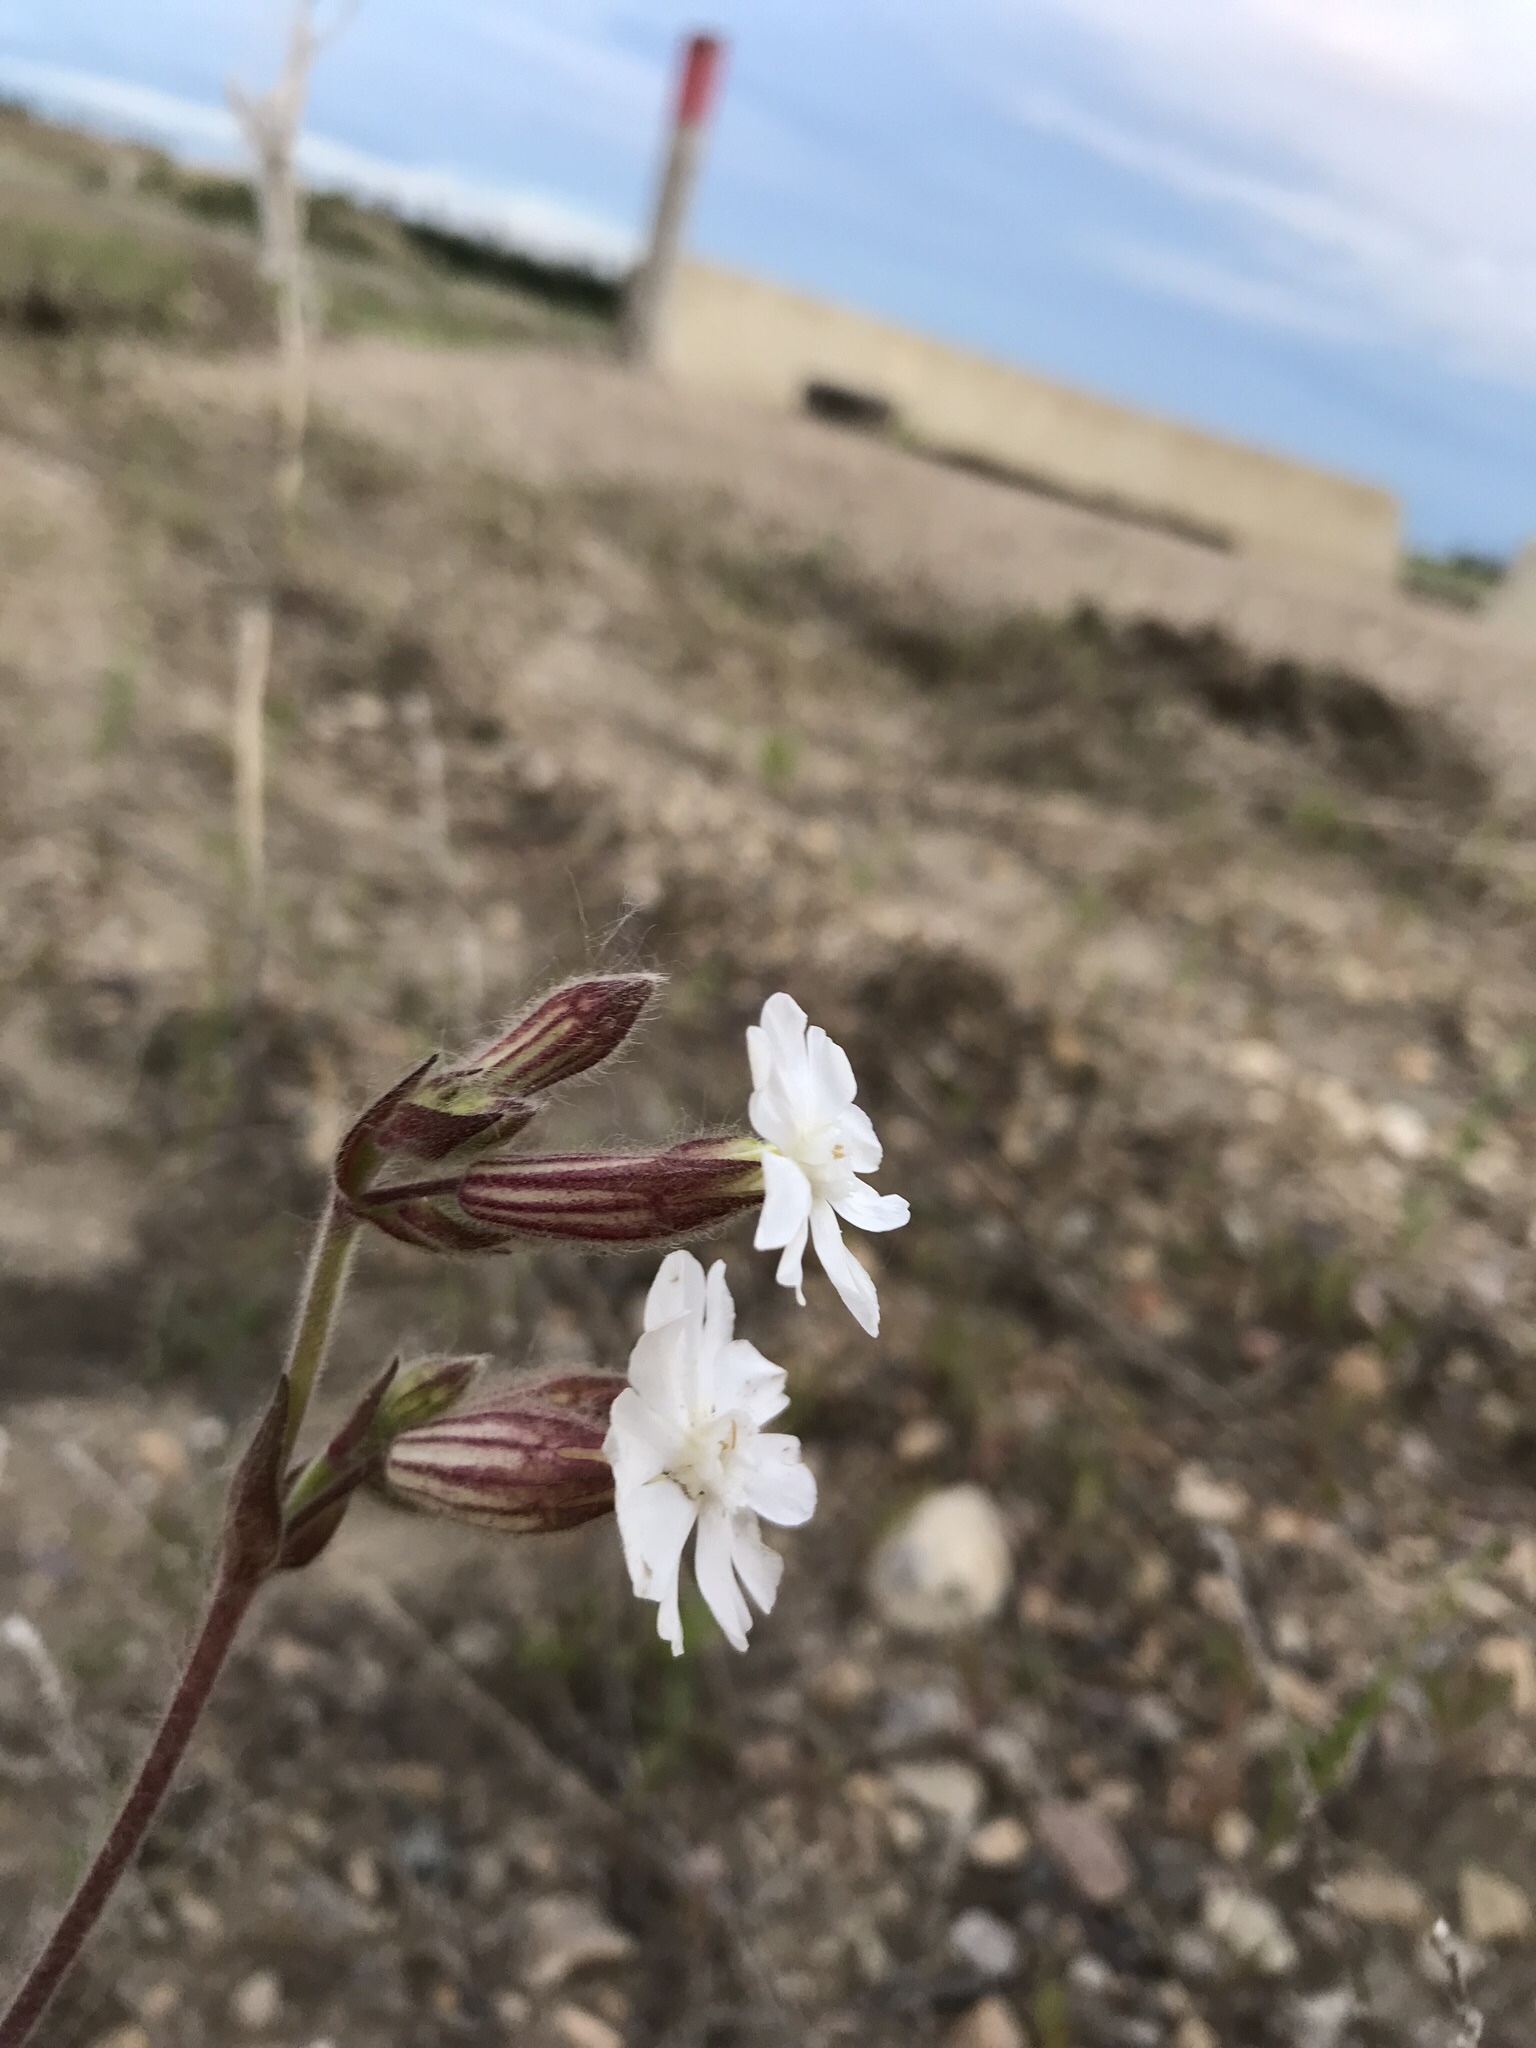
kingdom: Plantae
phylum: Tracheophyta
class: Magnoliopsida
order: Caryophyllales
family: Caryophyllaceae
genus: Silene
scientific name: Silene latifolia
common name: White campion
